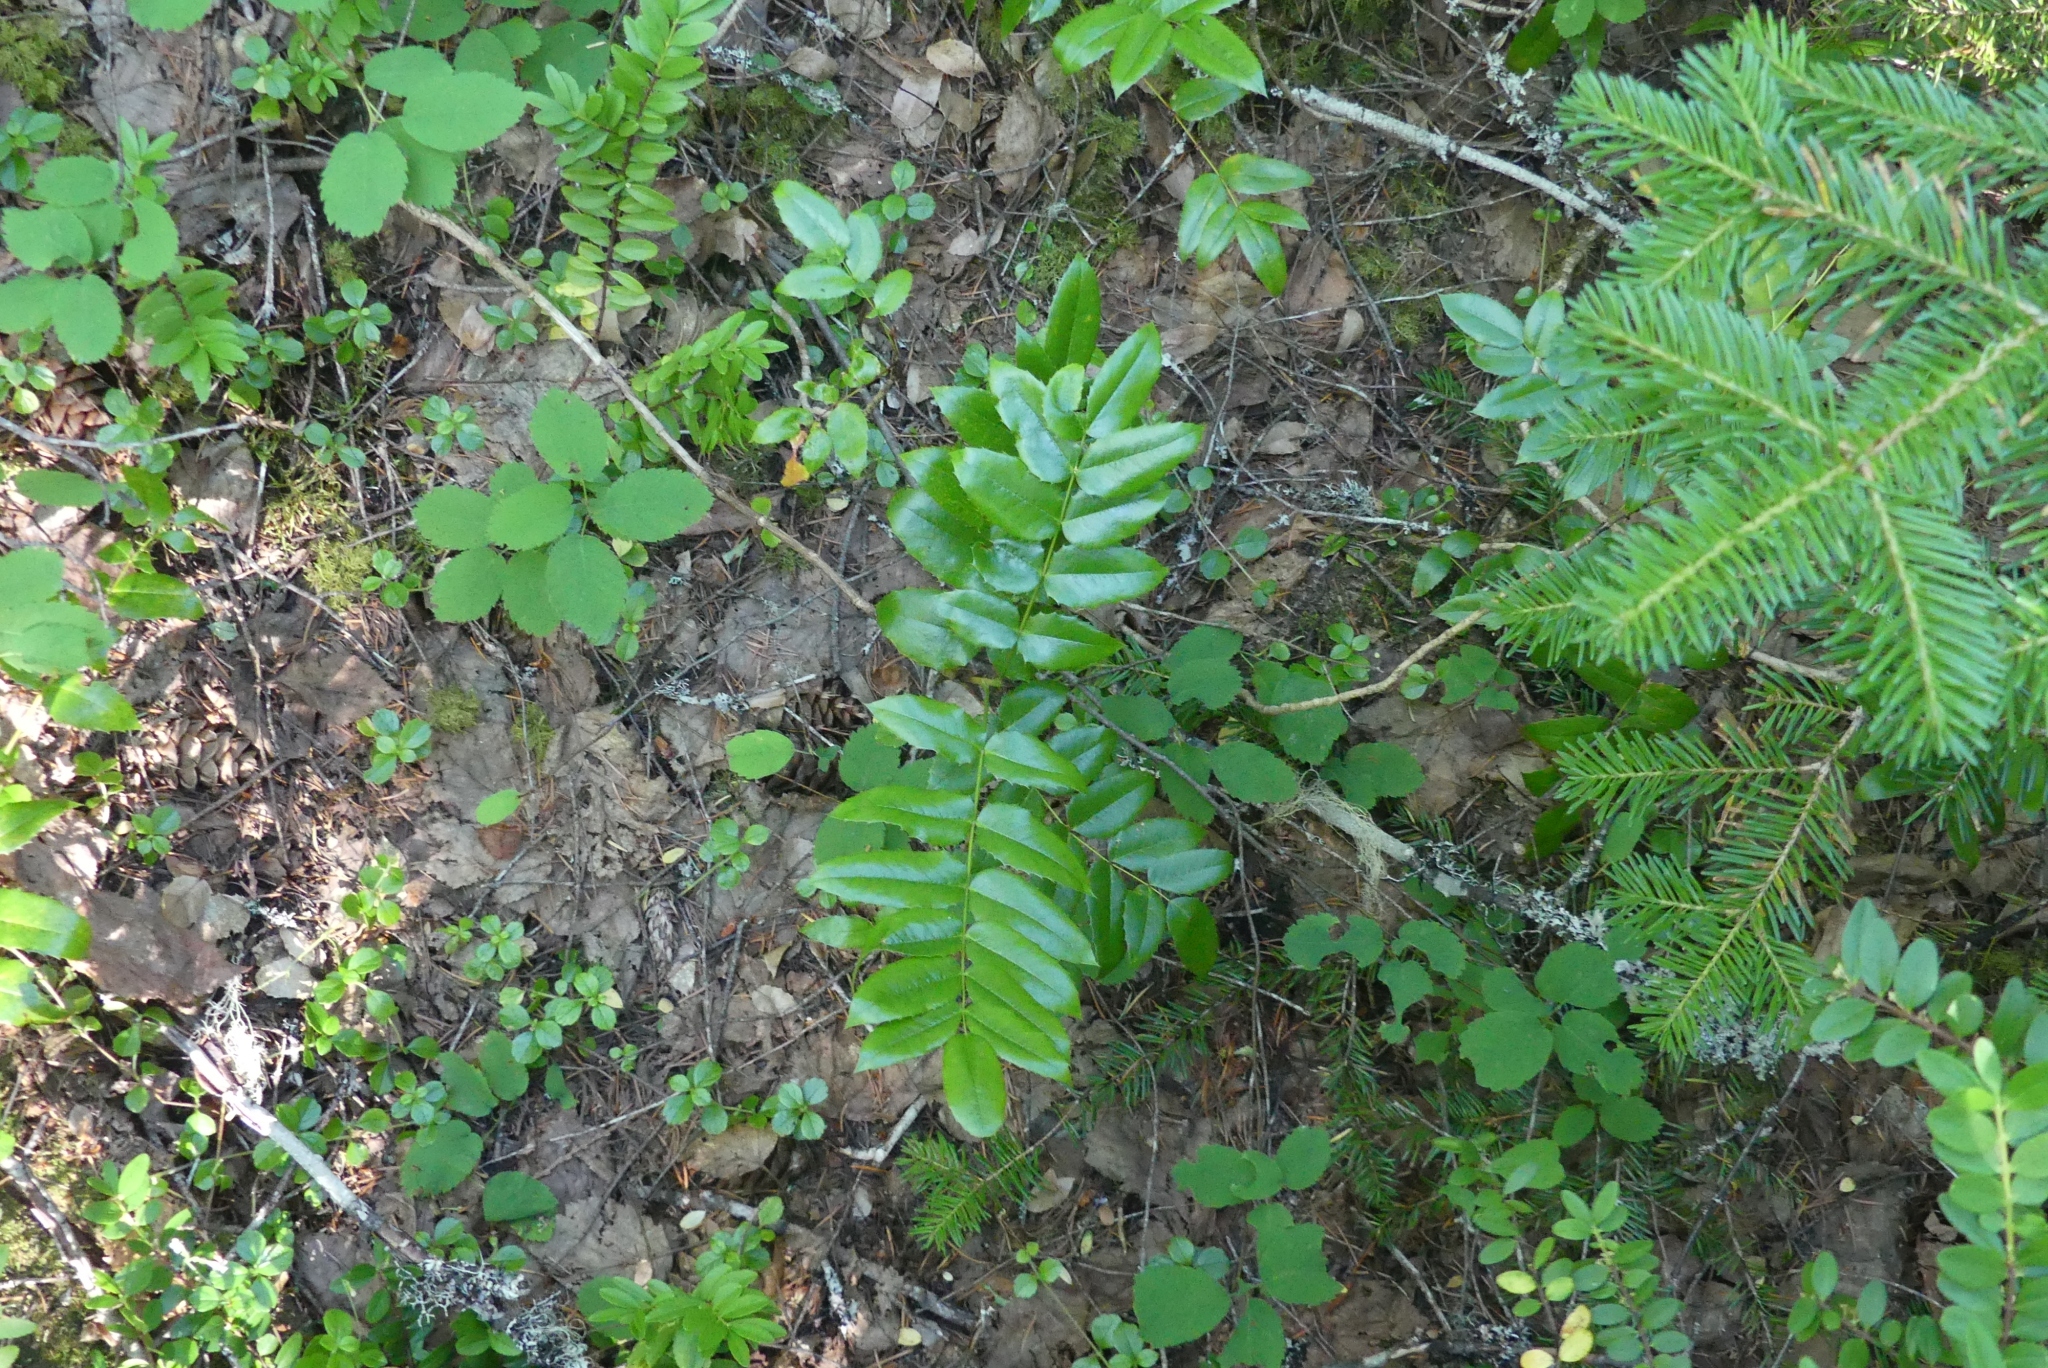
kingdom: Plantae
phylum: Tracheophyta
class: Magnoliopsida
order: Ranunculales
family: Berberidaceae
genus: Mahonia
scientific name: Mahonia aquifolium
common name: Oregon-grape
